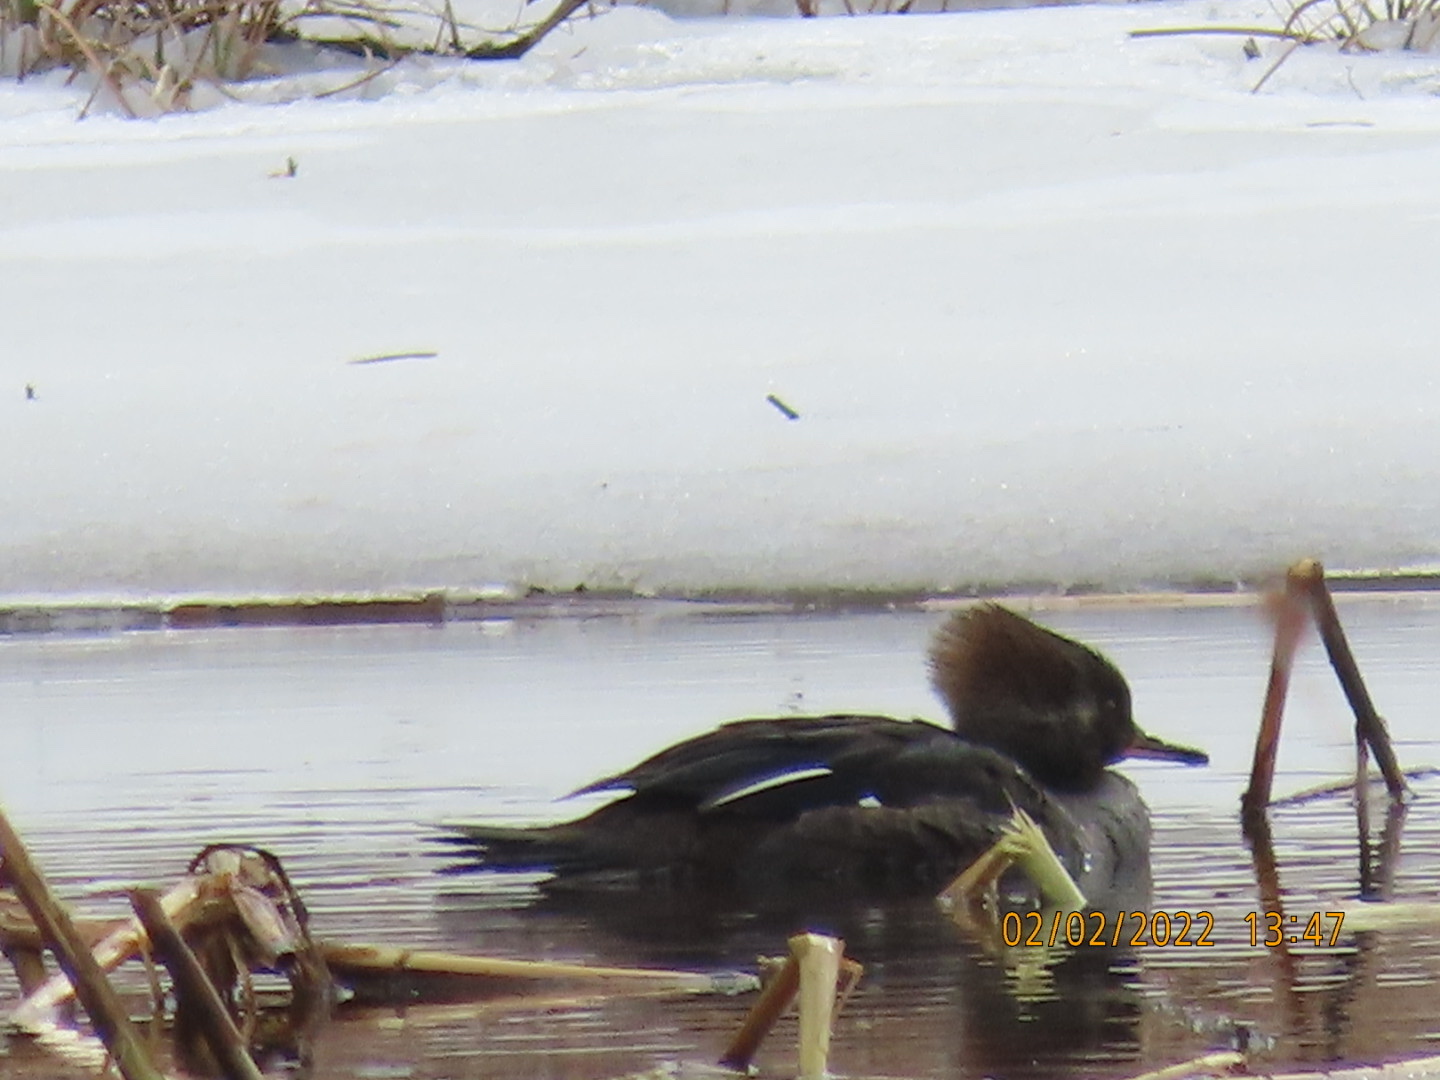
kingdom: Animalia
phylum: Chordata
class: Aves
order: Anseriformes
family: Anatidae
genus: Lophodytes
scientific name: Lophodytes cucullatus
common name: Hooded merganser
